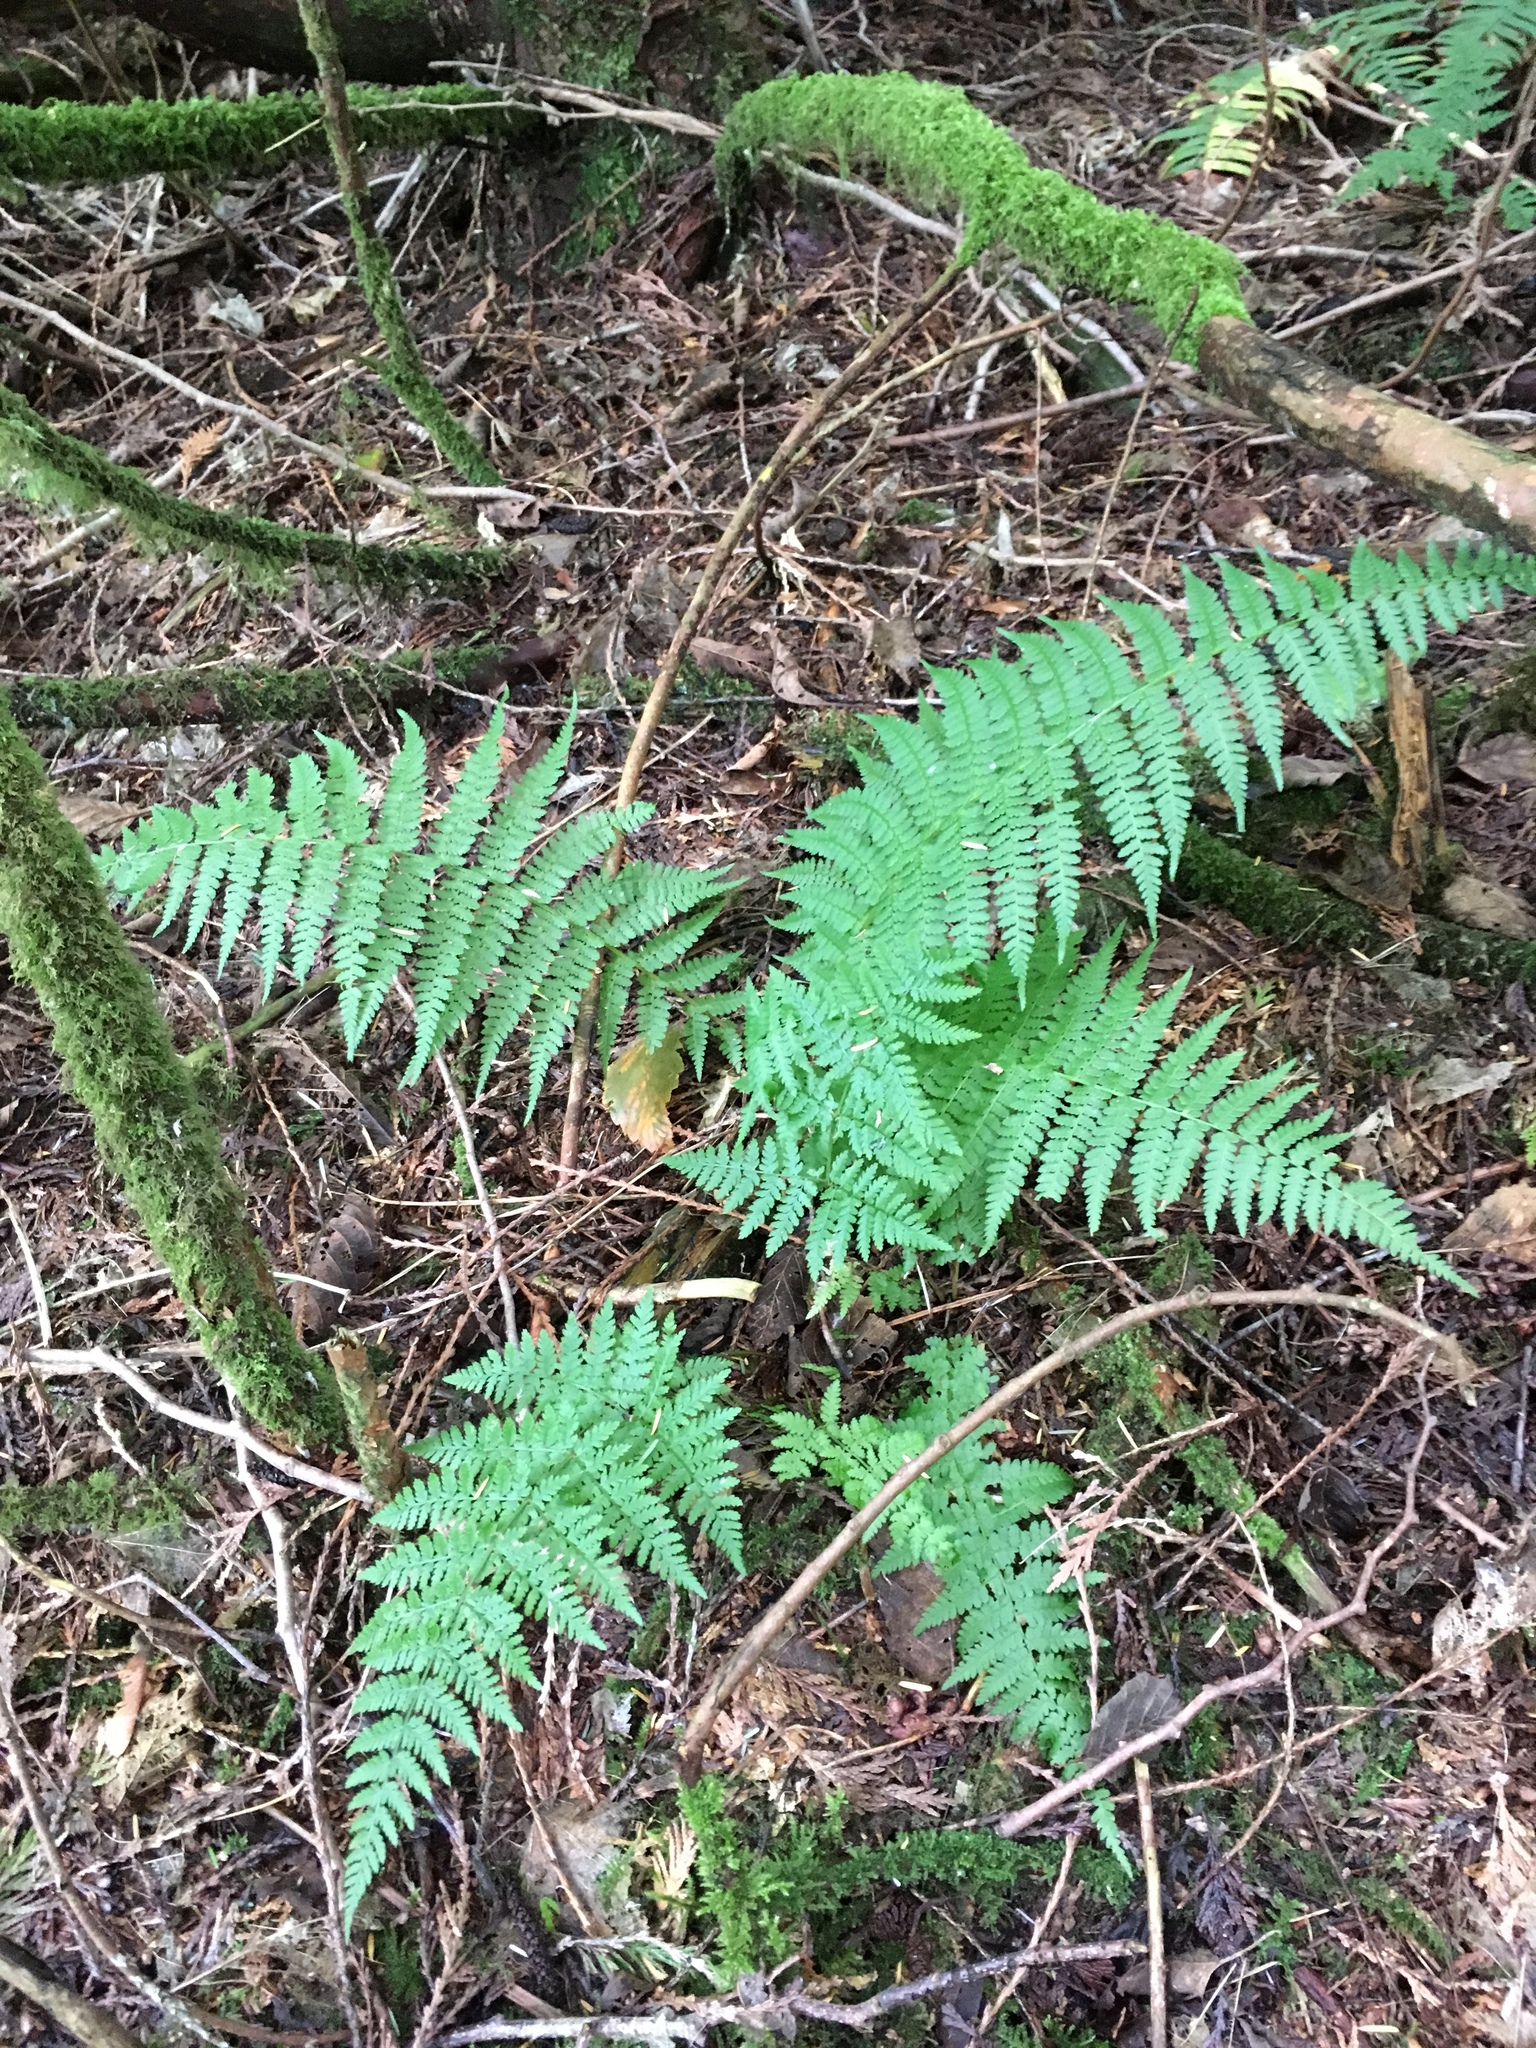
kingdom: Plantae
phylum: Tracheophyta
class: Polypodiopsida
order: Polypodiales
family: Dryopteridaceae
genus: Dryopteris
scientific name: Dryopteris expansa
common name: Northern buckler fern
